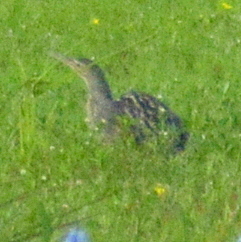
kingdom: Animalia
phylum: Chordata
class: Aves
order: Pelecaniformes
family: Ardeidae
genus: Botaurus
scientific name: Botaurus pinnatus
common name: Pinnated bittern
